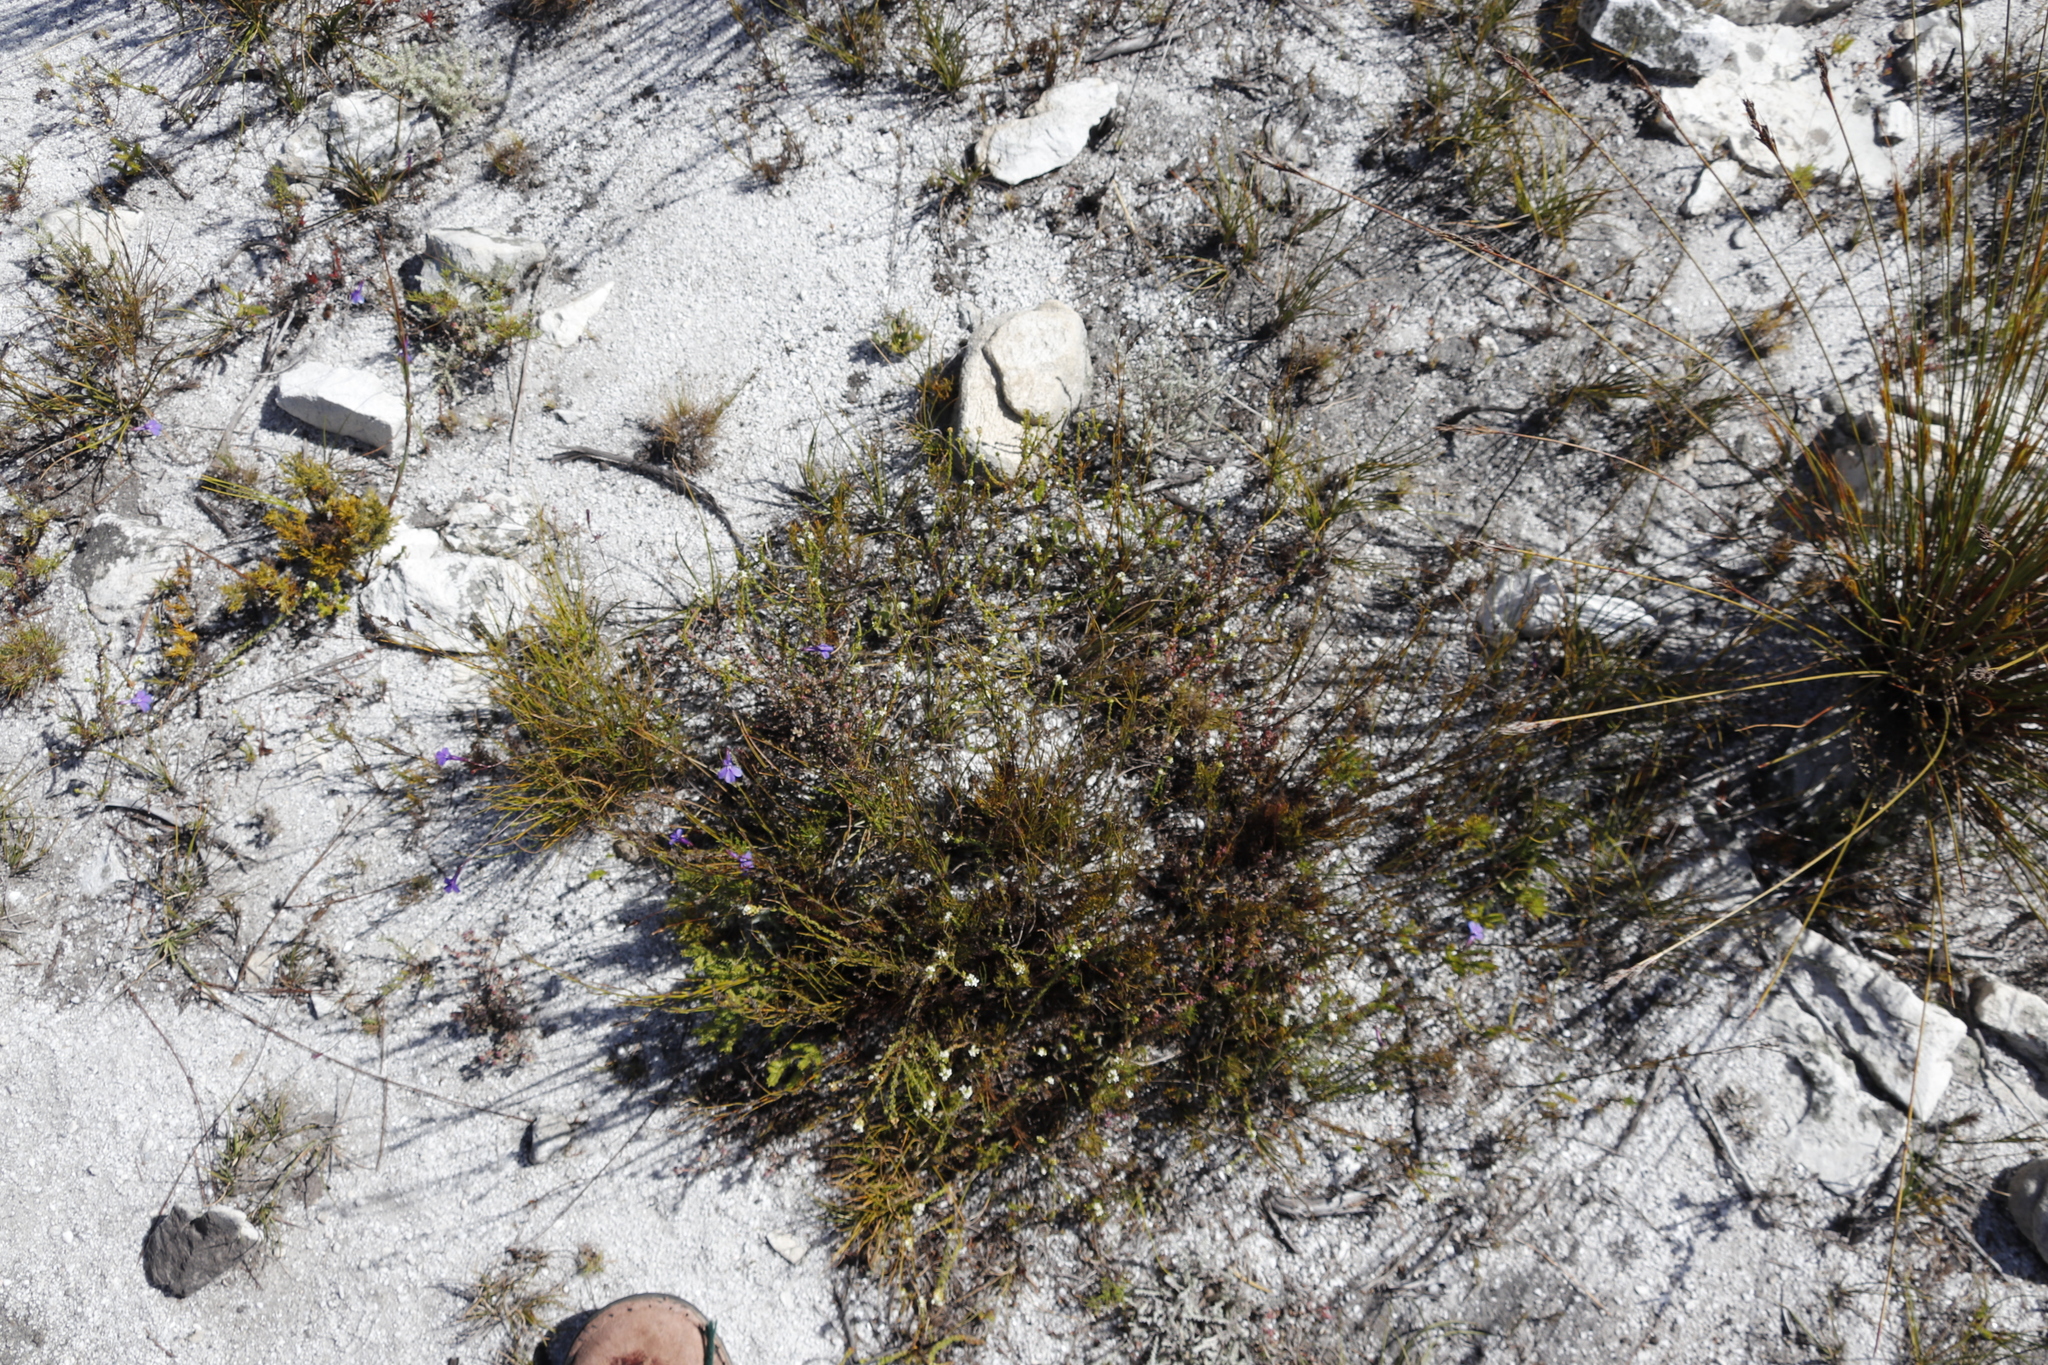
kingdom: Plantae
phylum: Tracheophyta
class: Magnoliopsida
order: Lamiales
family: Scrophulariaceae
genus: Selago
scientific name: Selago scabrida
